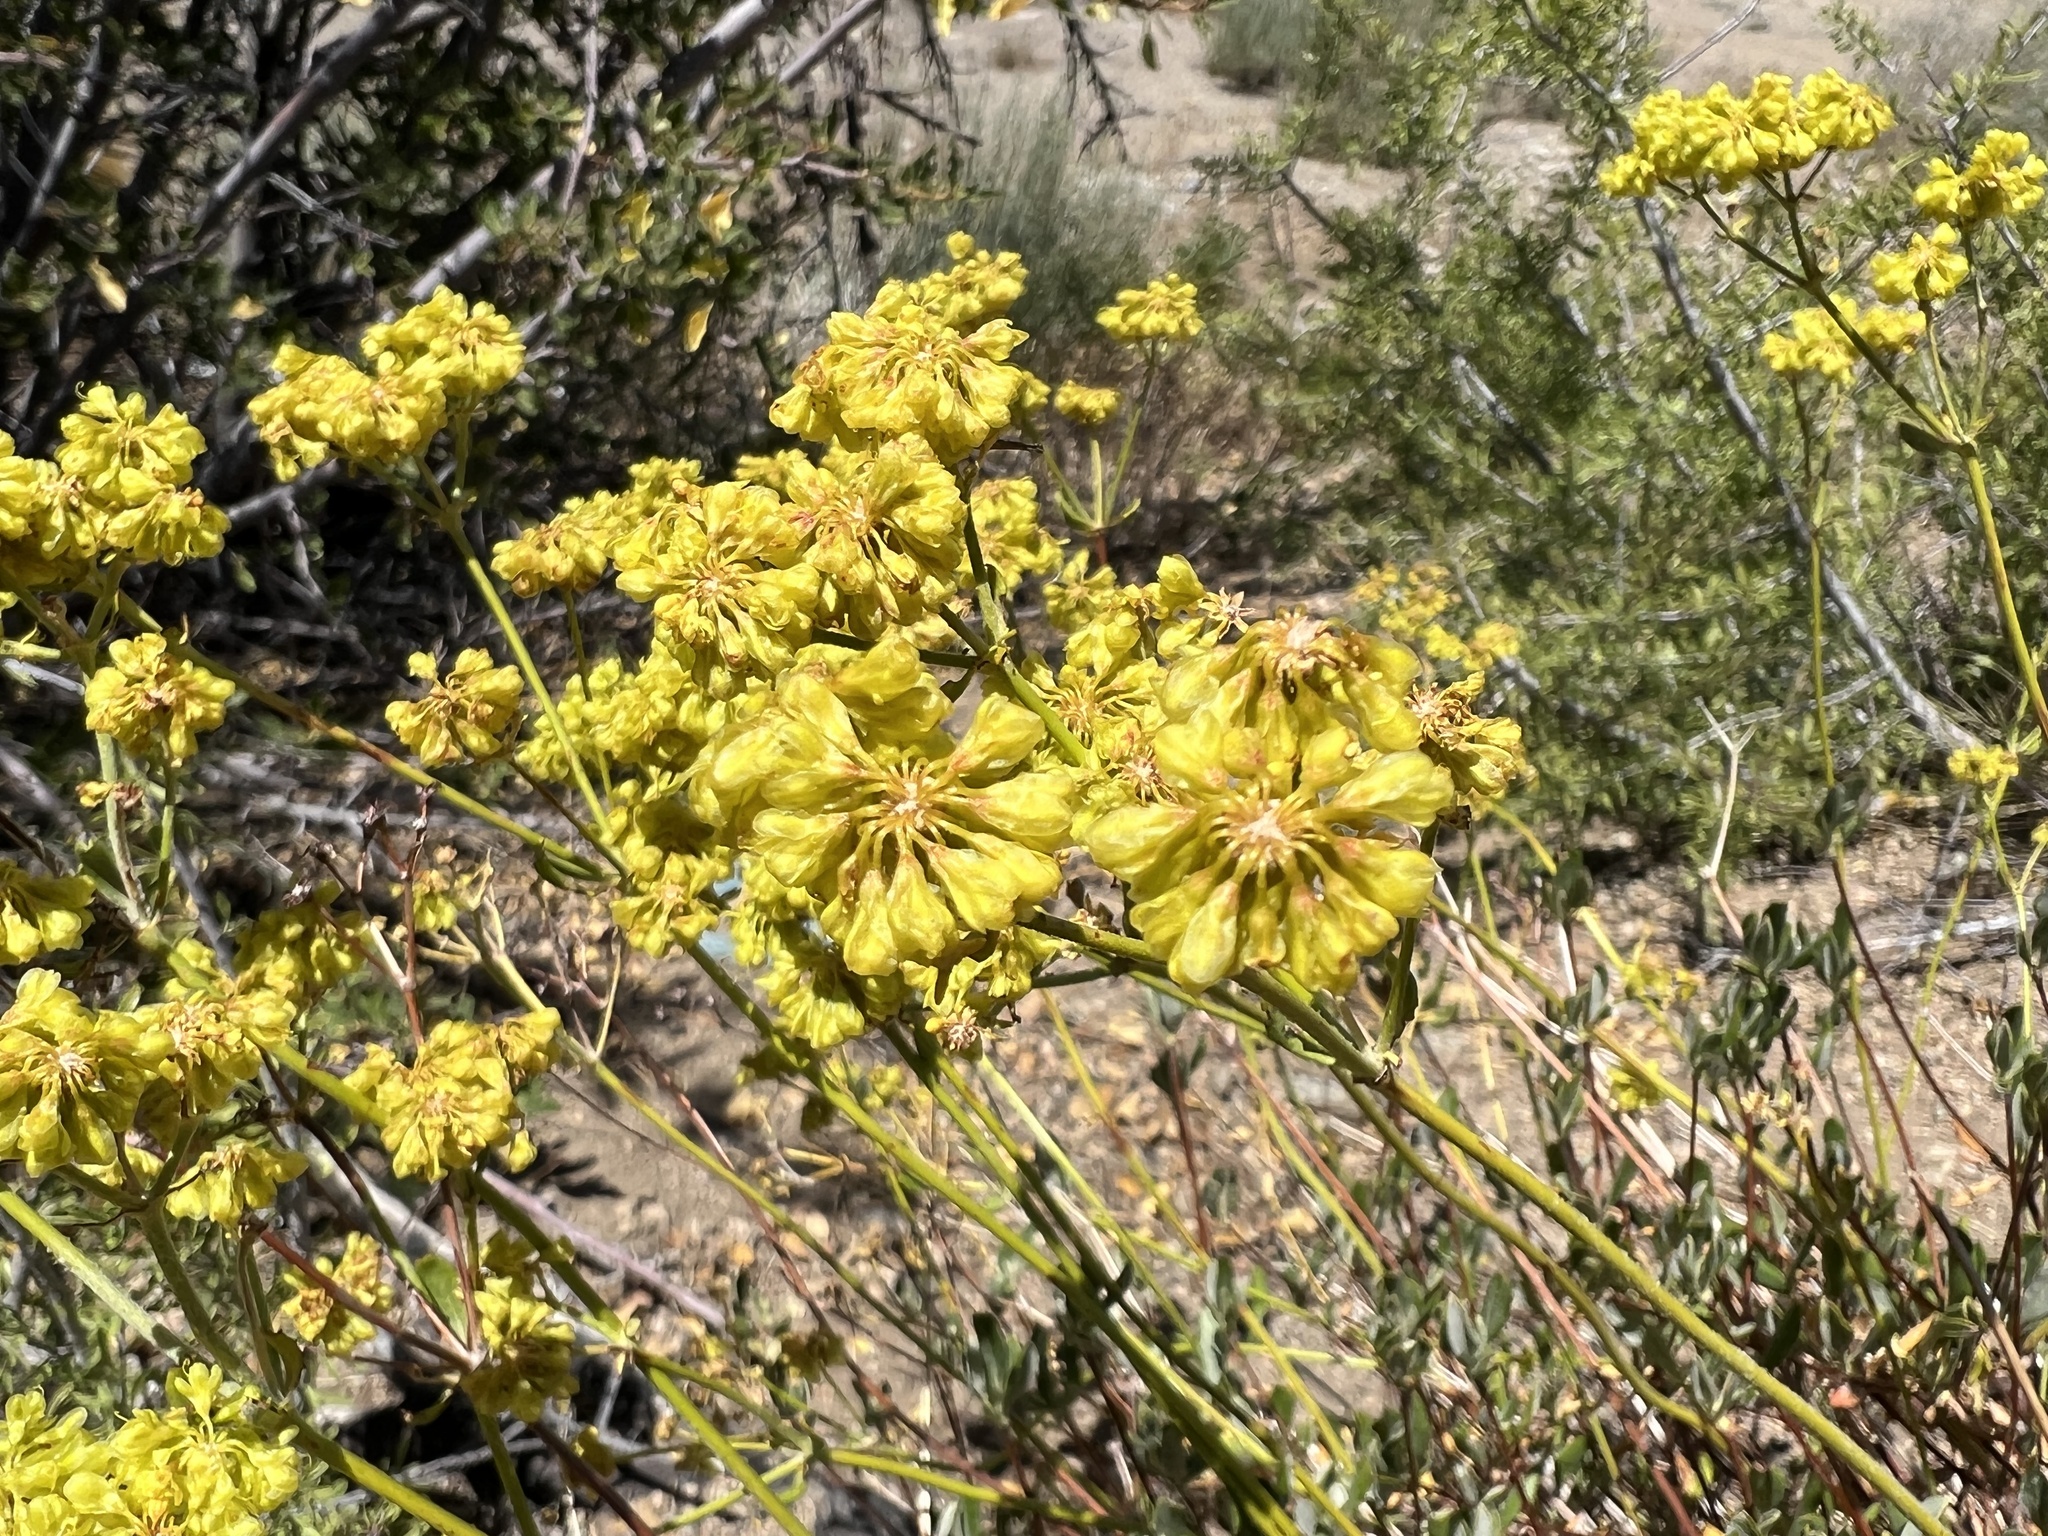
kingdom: Plantae
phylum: Tracheophyta
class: Magnoliopsida
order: Caryophyllales
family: Polygonaceae
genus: Eriogonum
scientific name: Eriogonum umbellatum
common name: Sulfur-buckwheat
